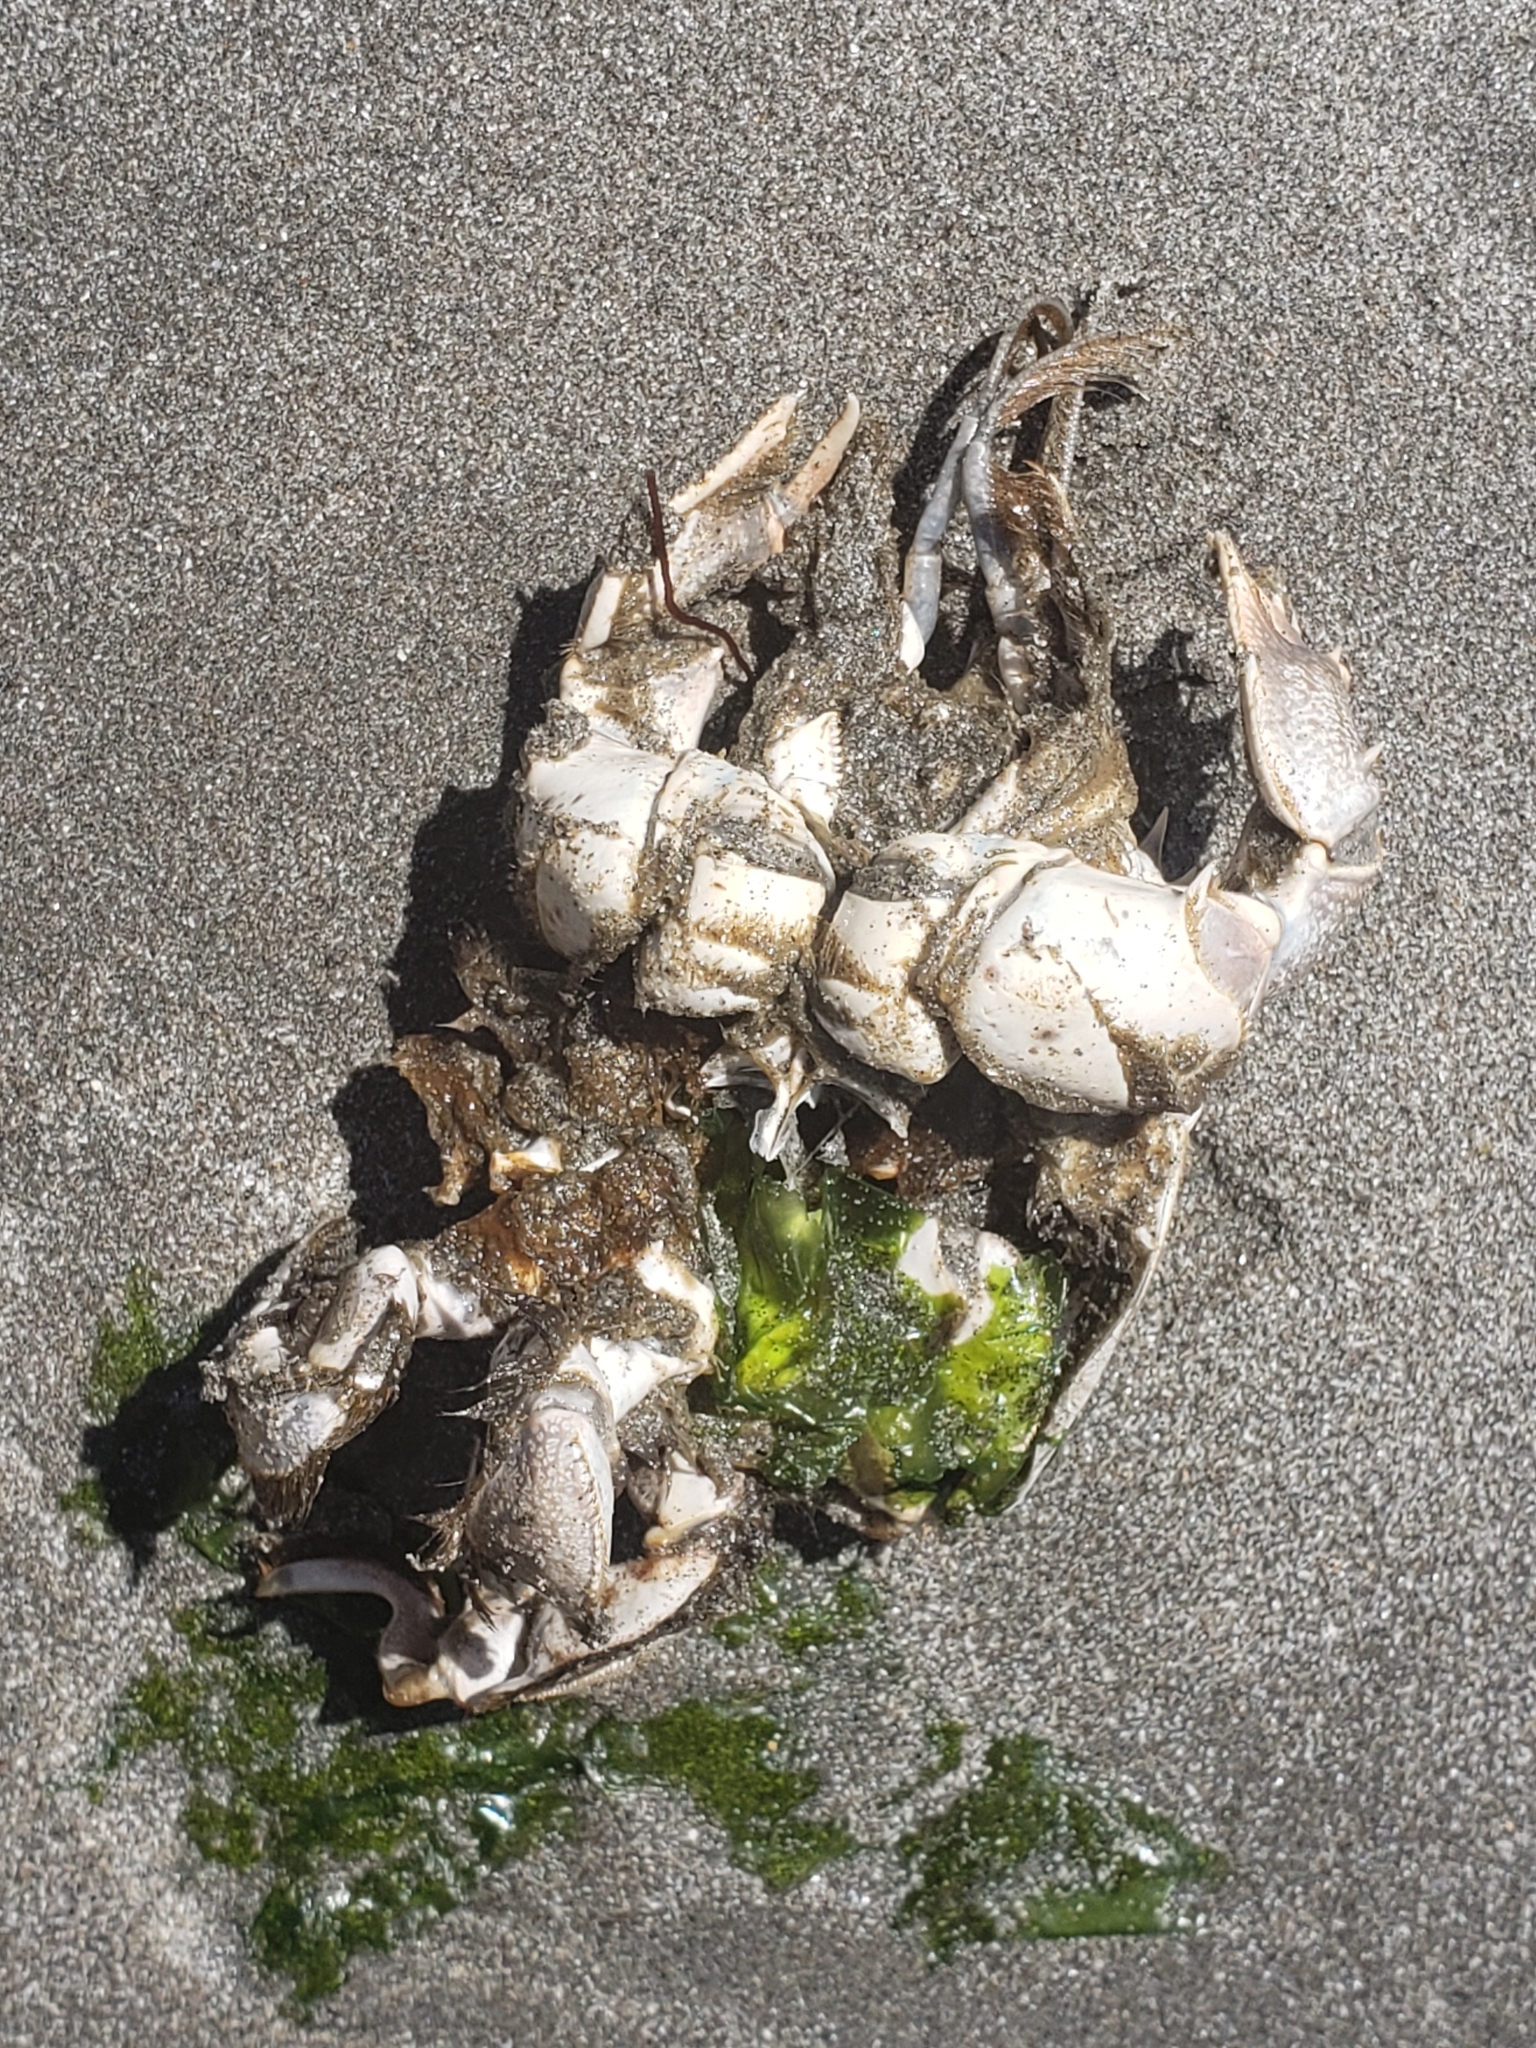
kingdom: Animalia
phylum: Arthropoda
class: Malacostraca
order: Decapoda
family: Blepharipodidae
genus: Blepharipoda
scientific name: Blepharipoda occidentalis
